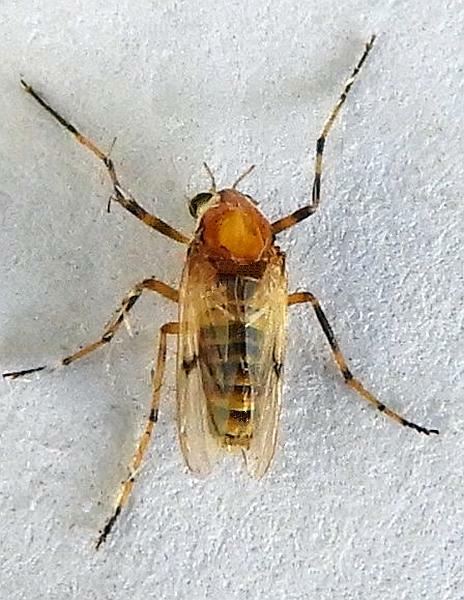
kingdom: Animalia
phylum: Arthropoda
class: Insecta
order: Diptera
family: Chironomidae
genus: Coelotanypus
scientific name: Coelotanypus tricolor
